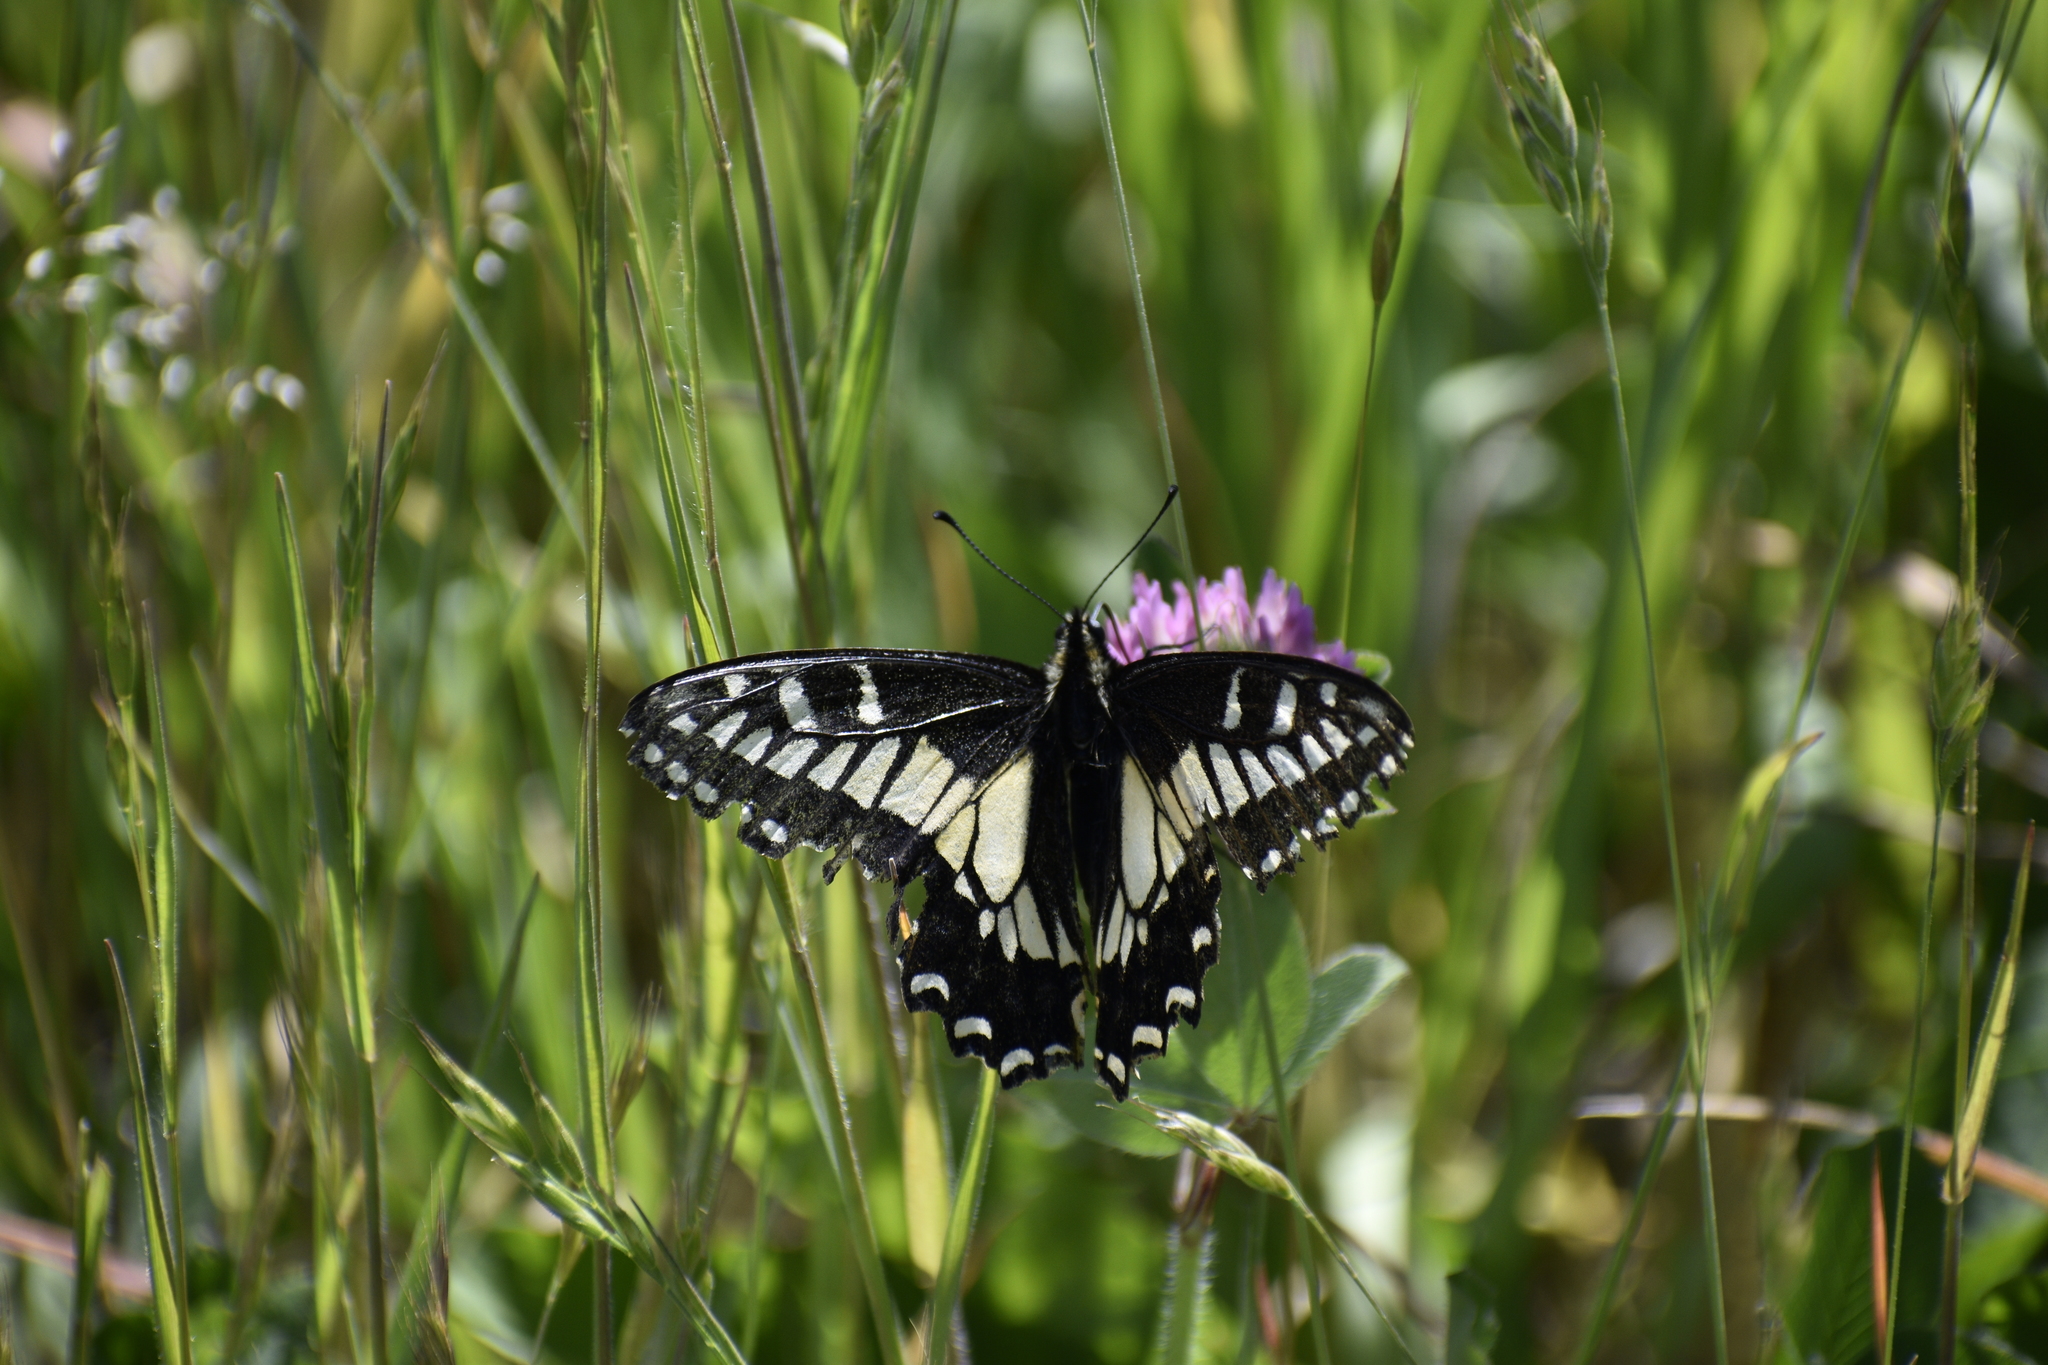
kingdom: Animalia
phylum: Arthropoda
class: Insecta
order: Lepidoptera
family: Papilionidae
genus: Papilio
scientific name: Papilio zelicaon
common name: Anise swallowtail
